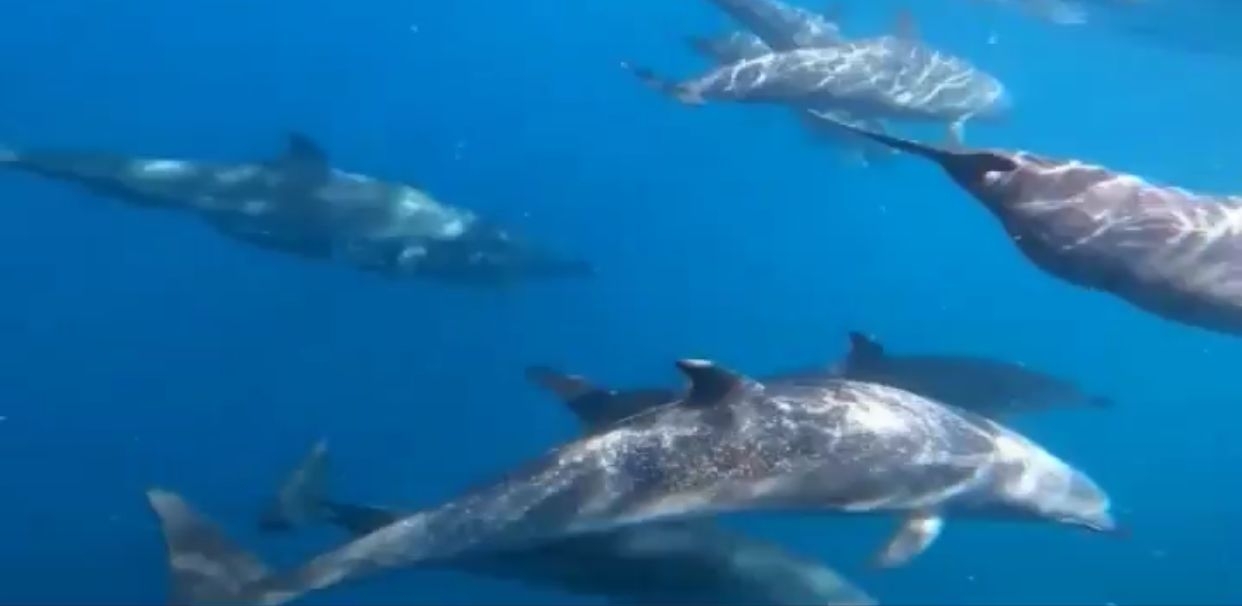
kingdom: Animalia
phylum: Chordata
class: Mammalia
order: Cetacea
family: Delphinidae
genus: Stenella
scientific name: Stenella attenuata
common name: Pantropical spotted dolphin
